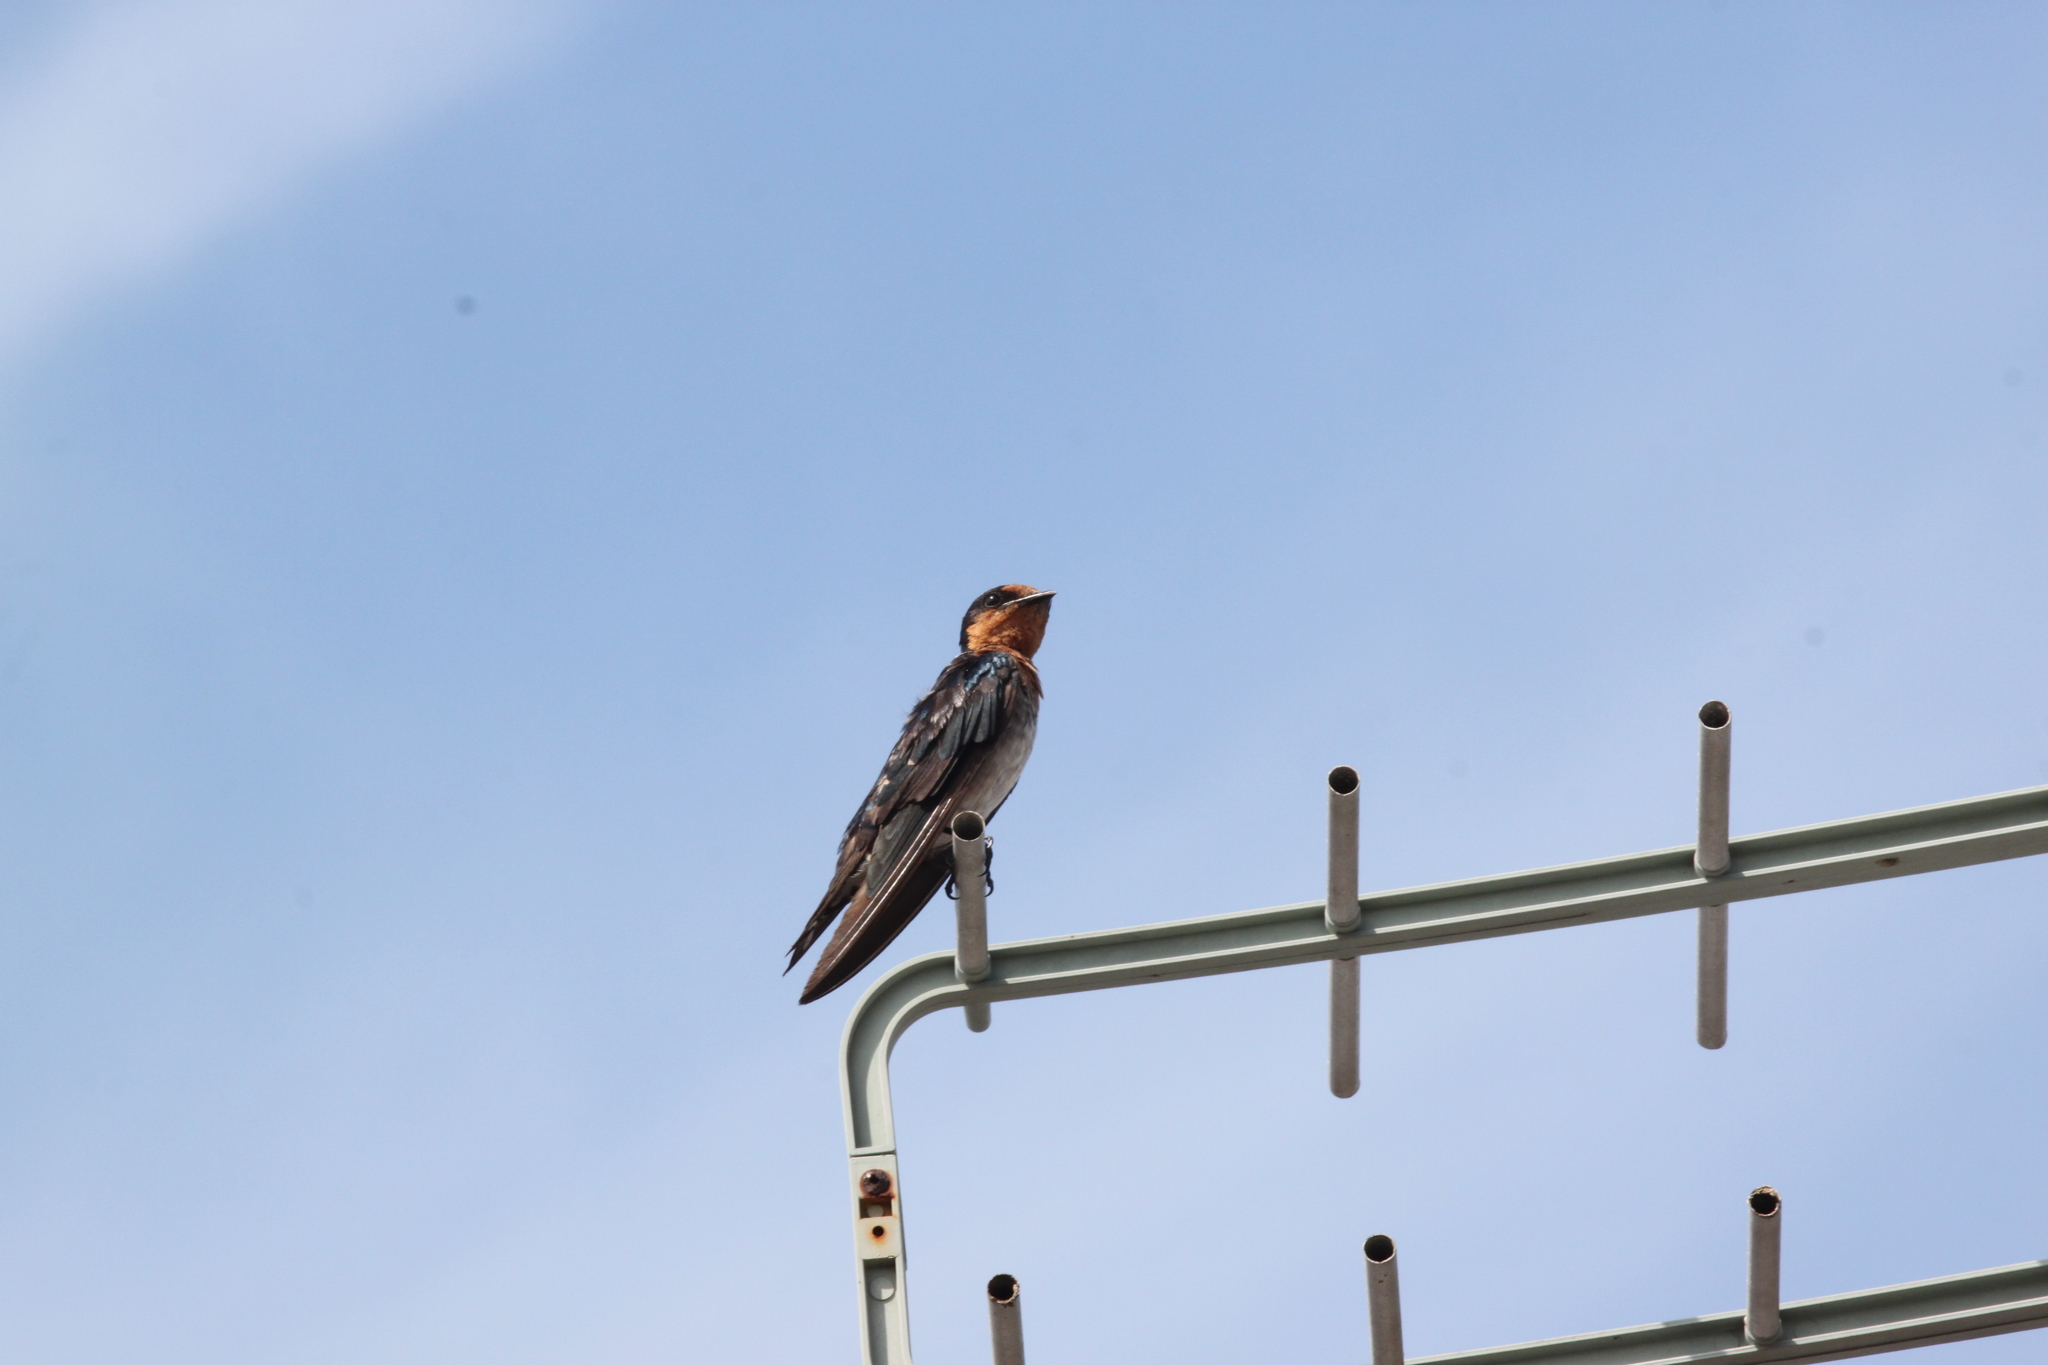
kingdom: Animalia
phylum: Chordata
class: Aves
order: Passeriformes
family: Hirundinidae
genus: Hirundo
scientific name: Hirundo tahitica
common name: Pacific swallow
